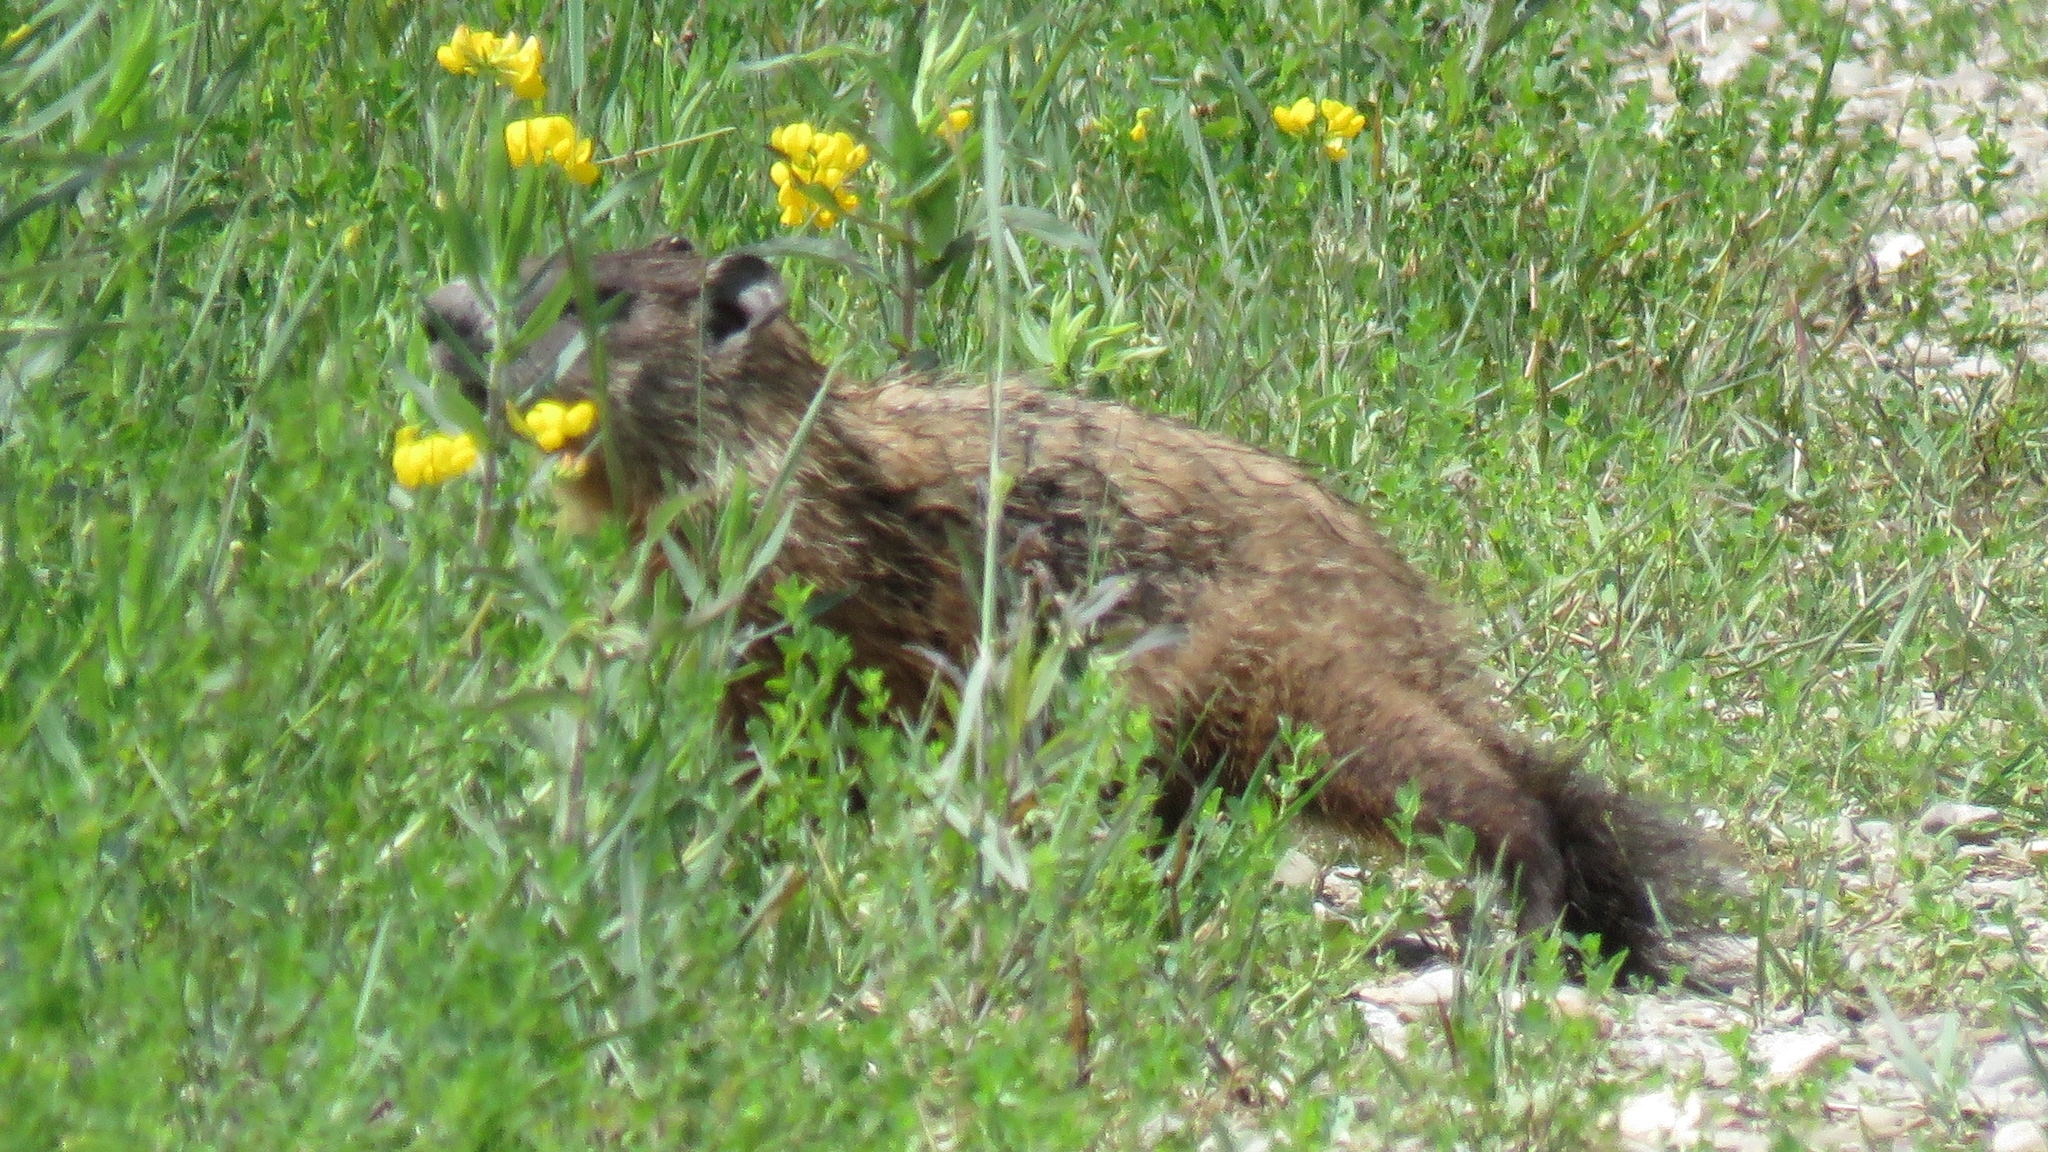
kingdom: Animalia
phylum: Chordata
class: Mammalia
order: Rodentia
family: Sciuridae
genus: Marmota
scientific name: Marmota monax
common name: Groundhog
